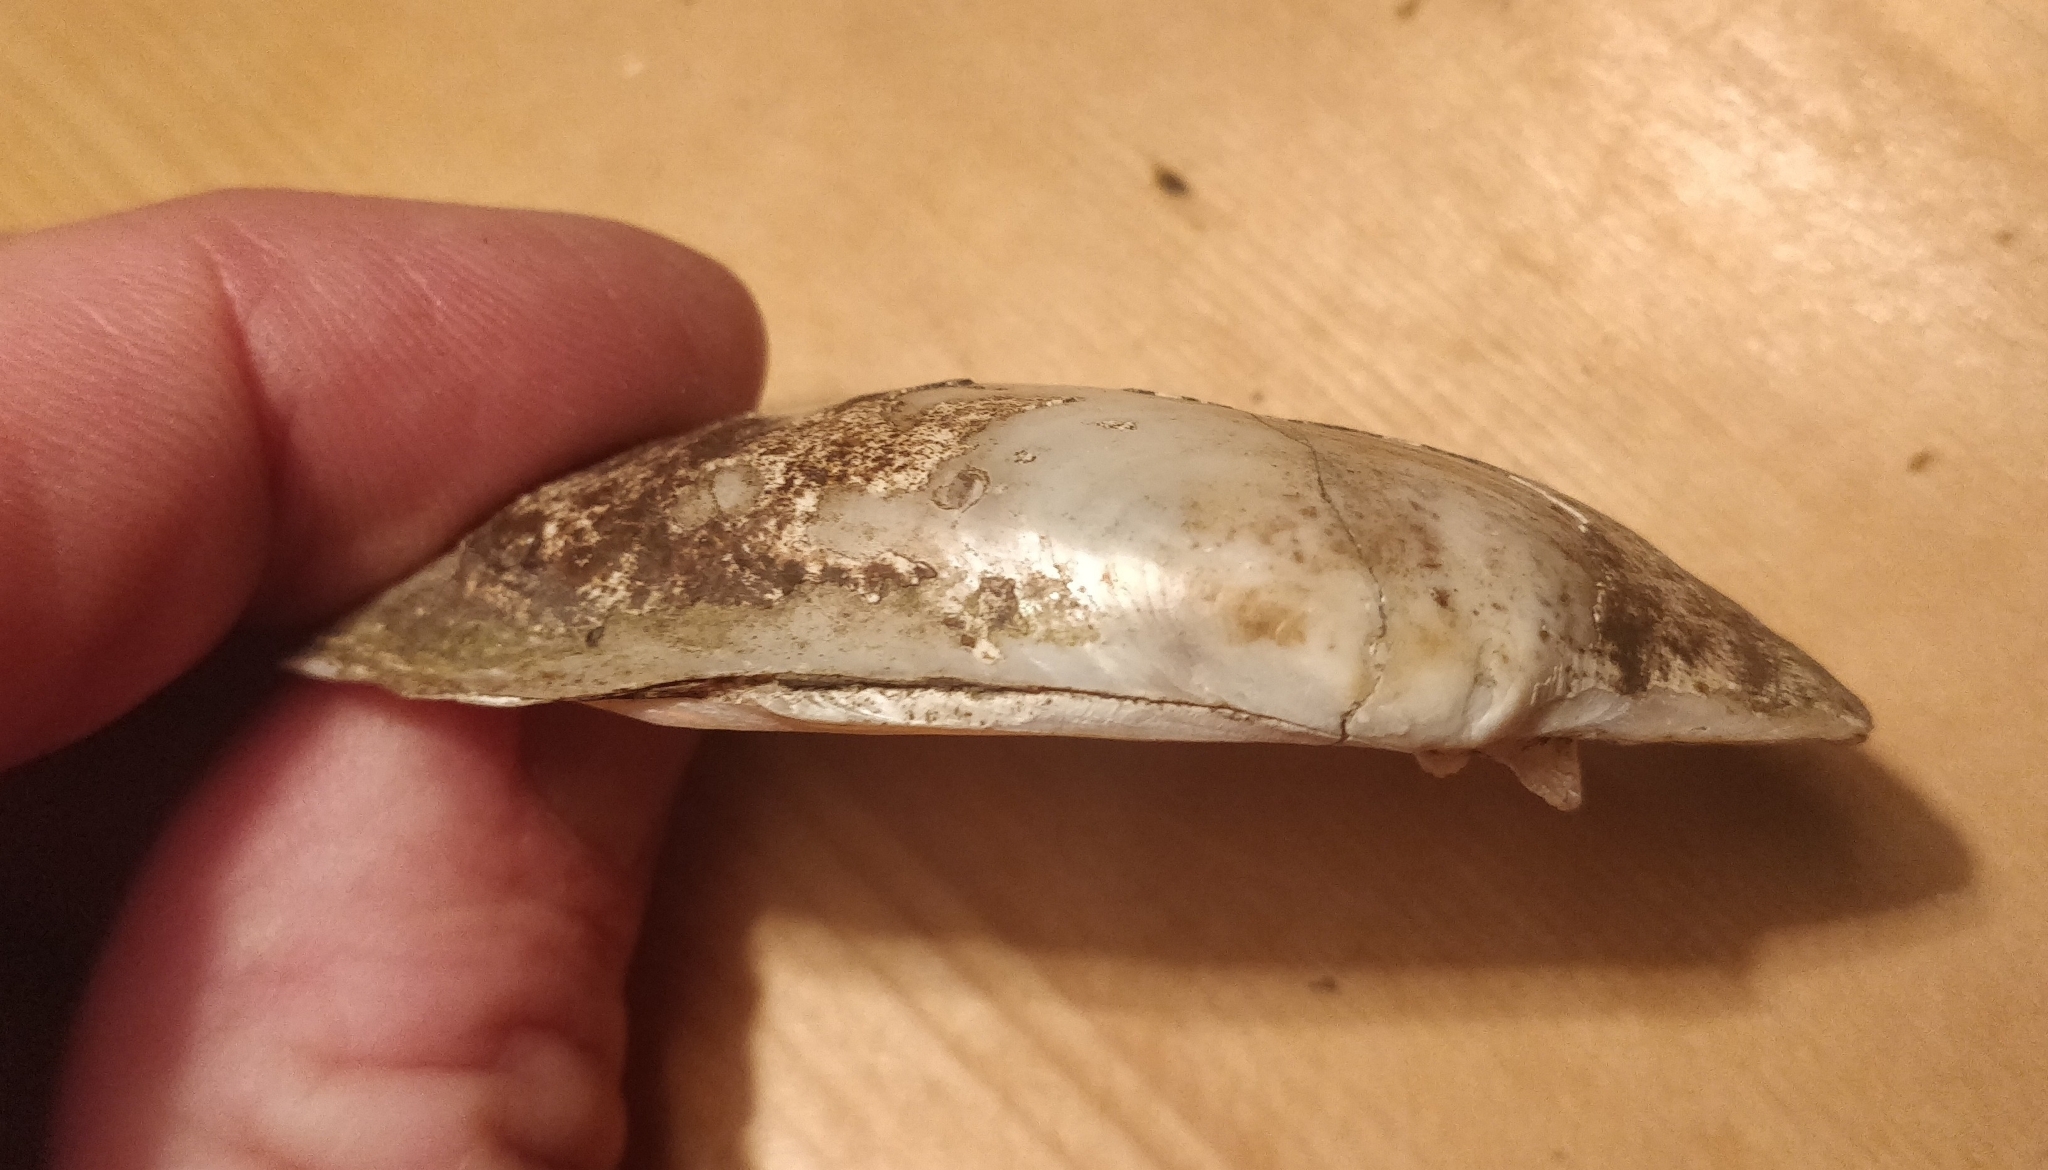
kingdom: Animalia
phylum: Mollusca
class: Bivalvia
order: Unionida
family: Unionidae
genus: Lampsilis
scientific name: Lampsilis siliquoidea
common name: Fatmucket
